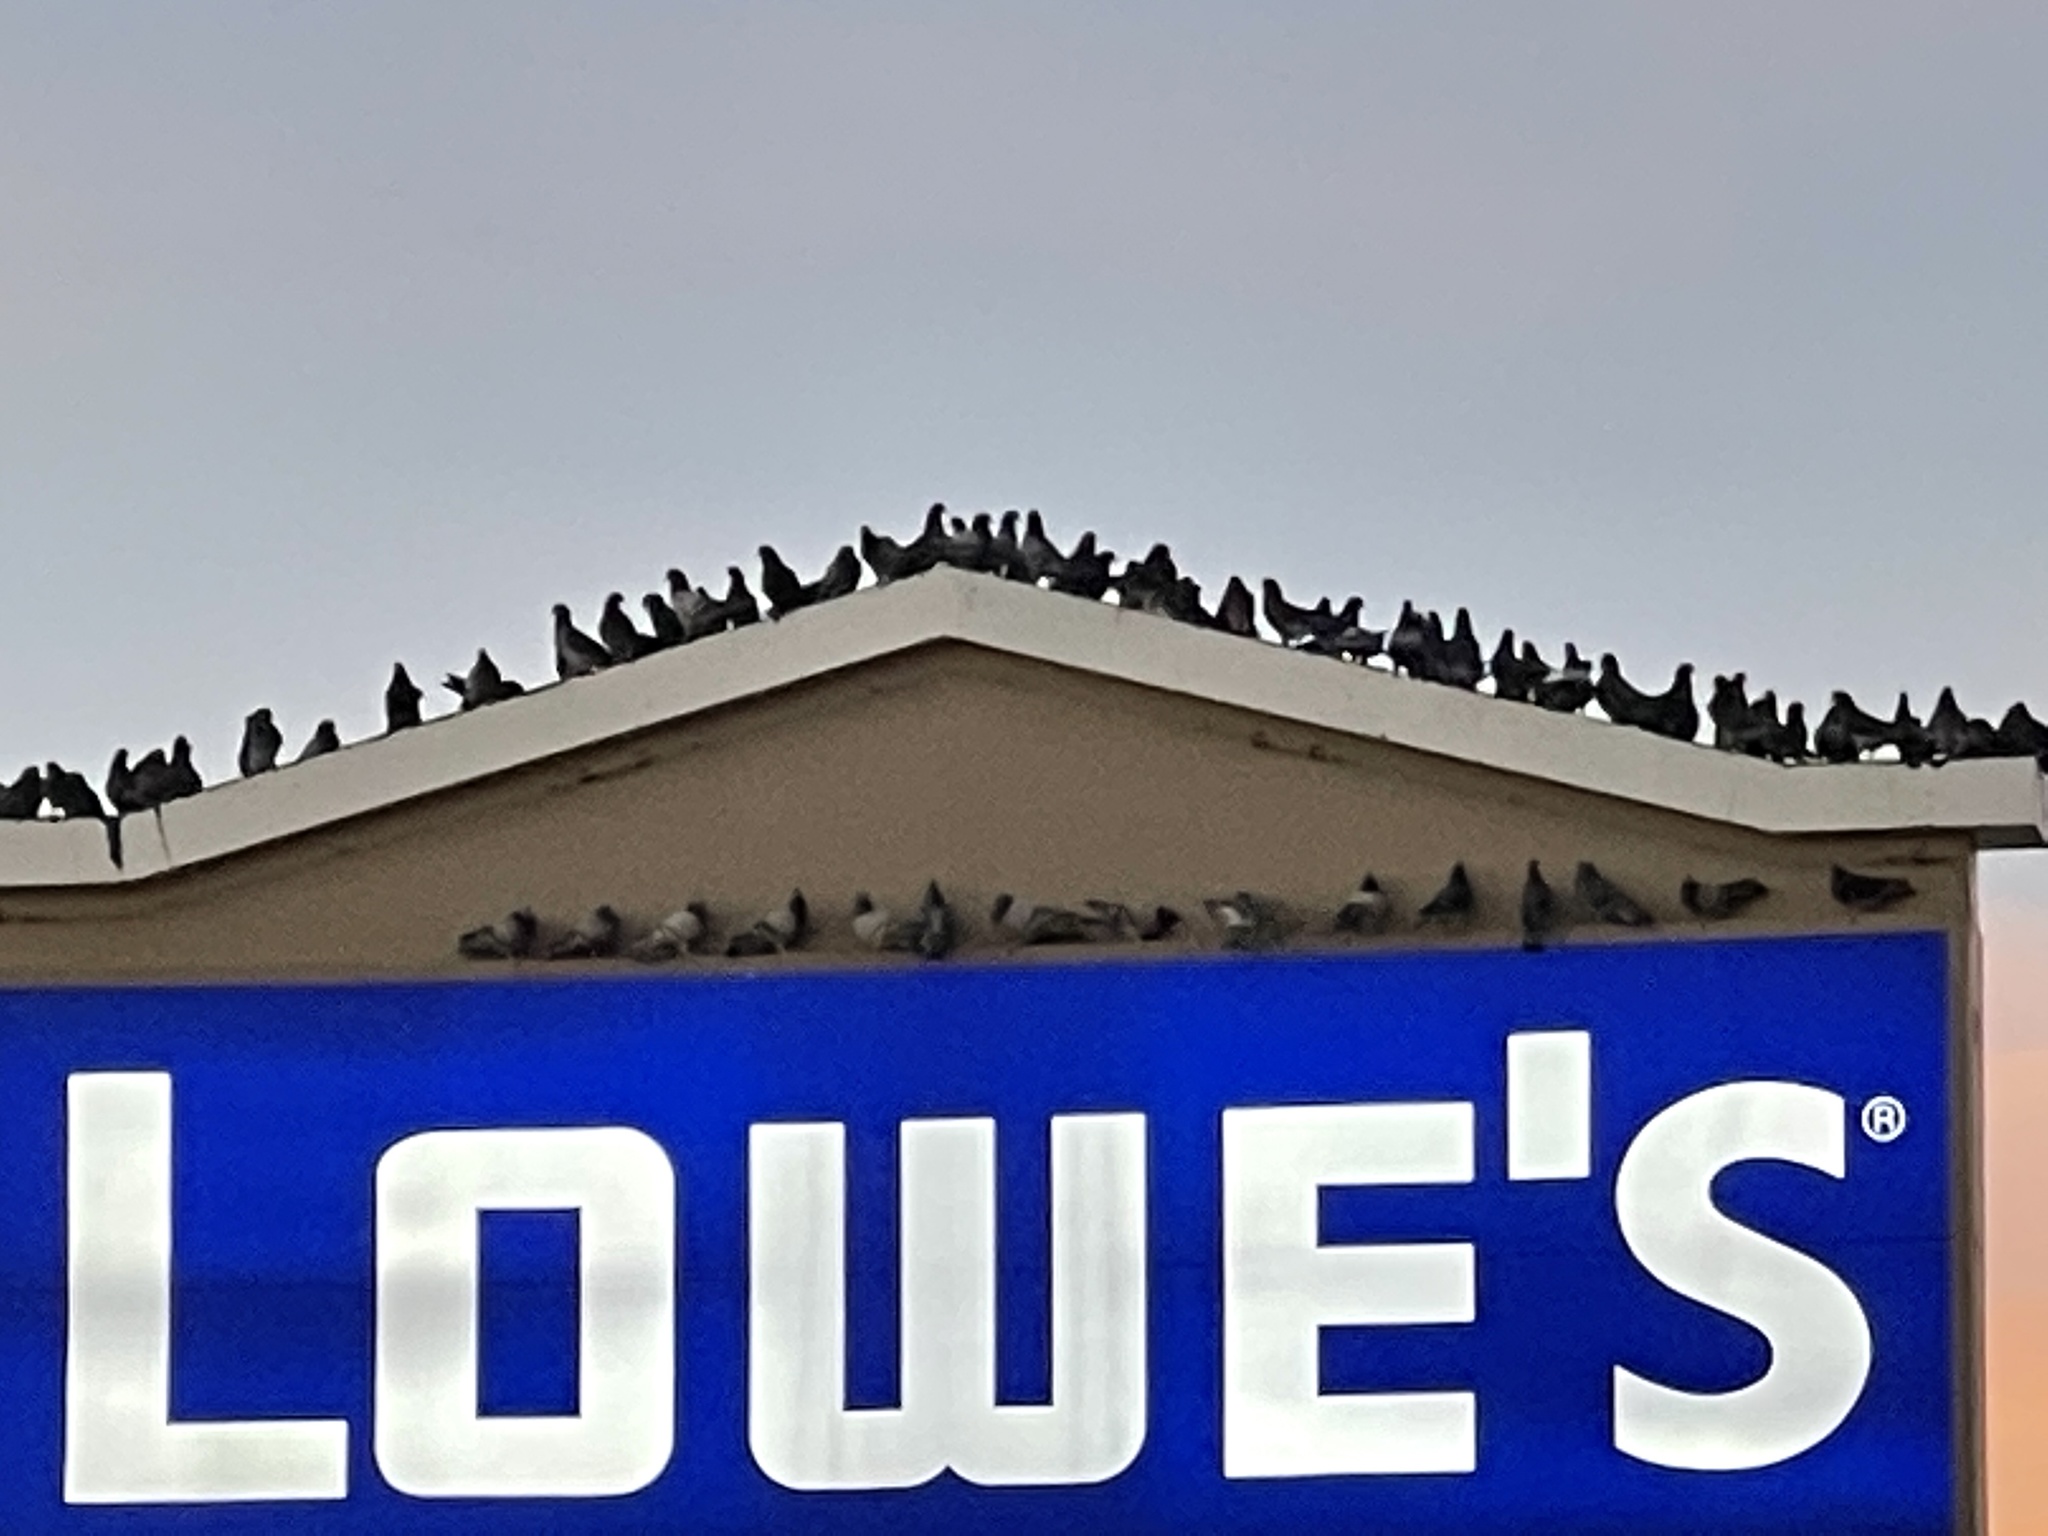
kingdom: Animalia
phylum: Chordata
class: Aves
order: Columbiformes
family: Columbidae
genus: Columba
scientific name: Columba livia
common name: Rock pigeon
